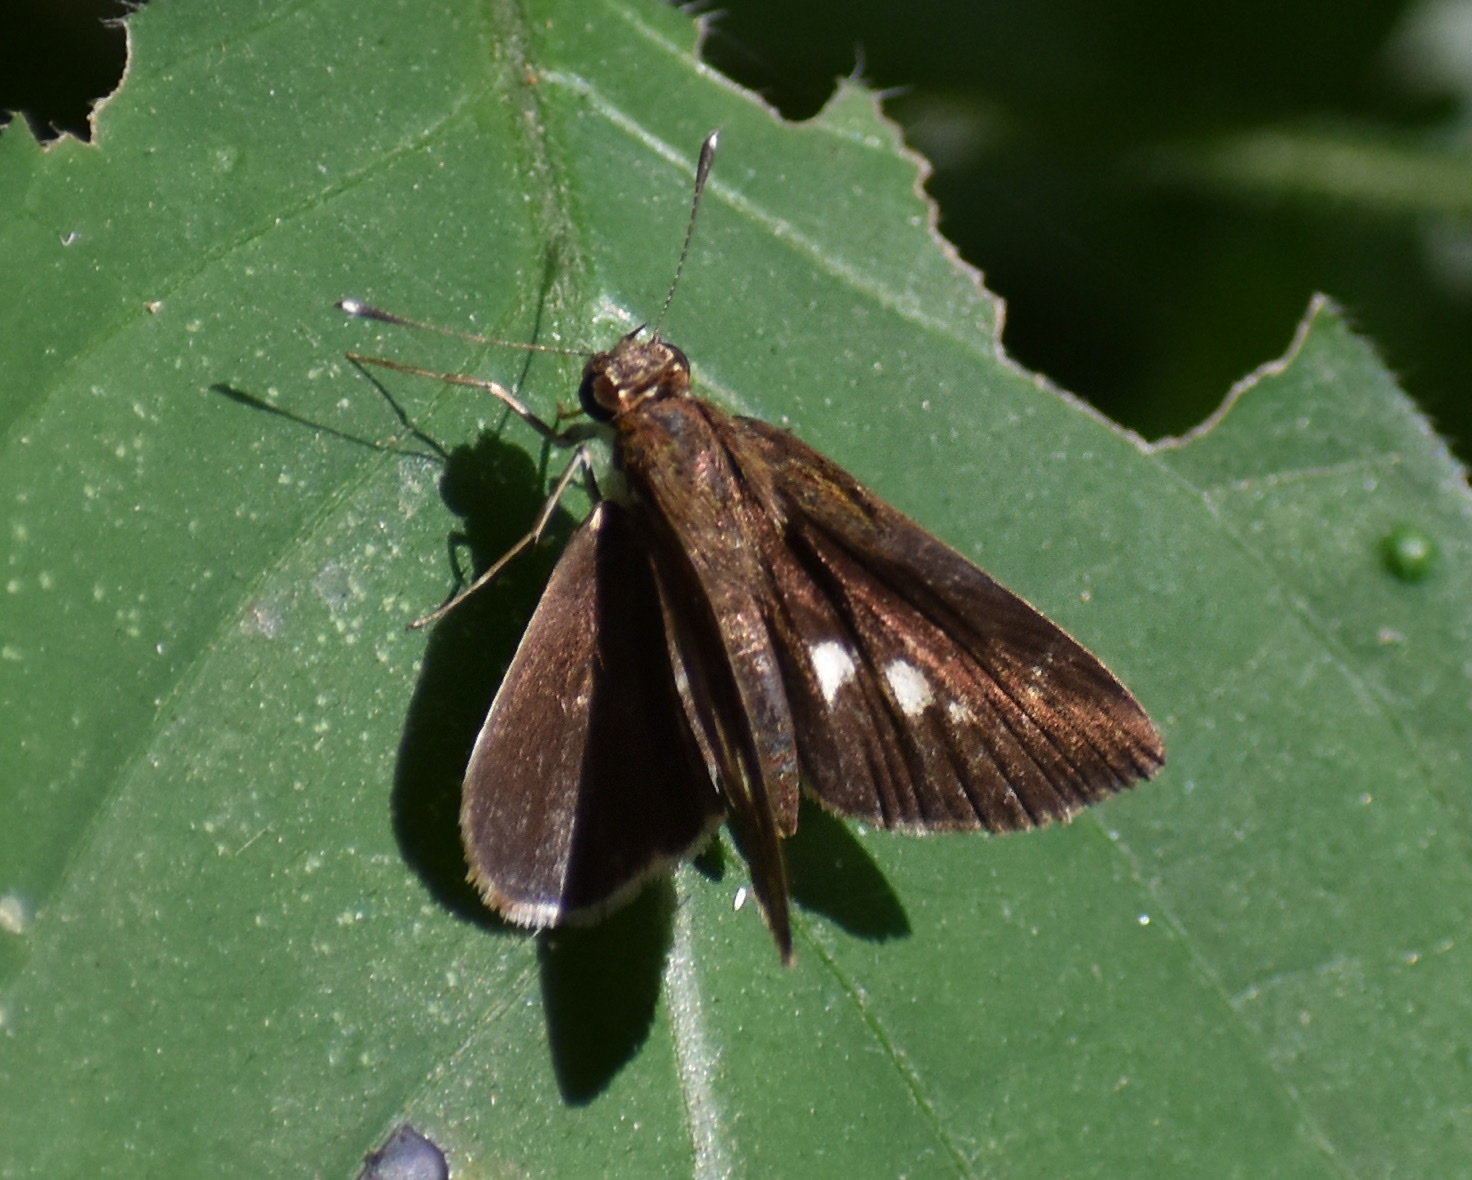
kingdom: Animalia
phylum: Arthropoda
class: Insecta
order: Lepidoptera
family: Hesperiidae
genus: Acleros
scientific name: Acleros mackenii
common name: Shade dart
